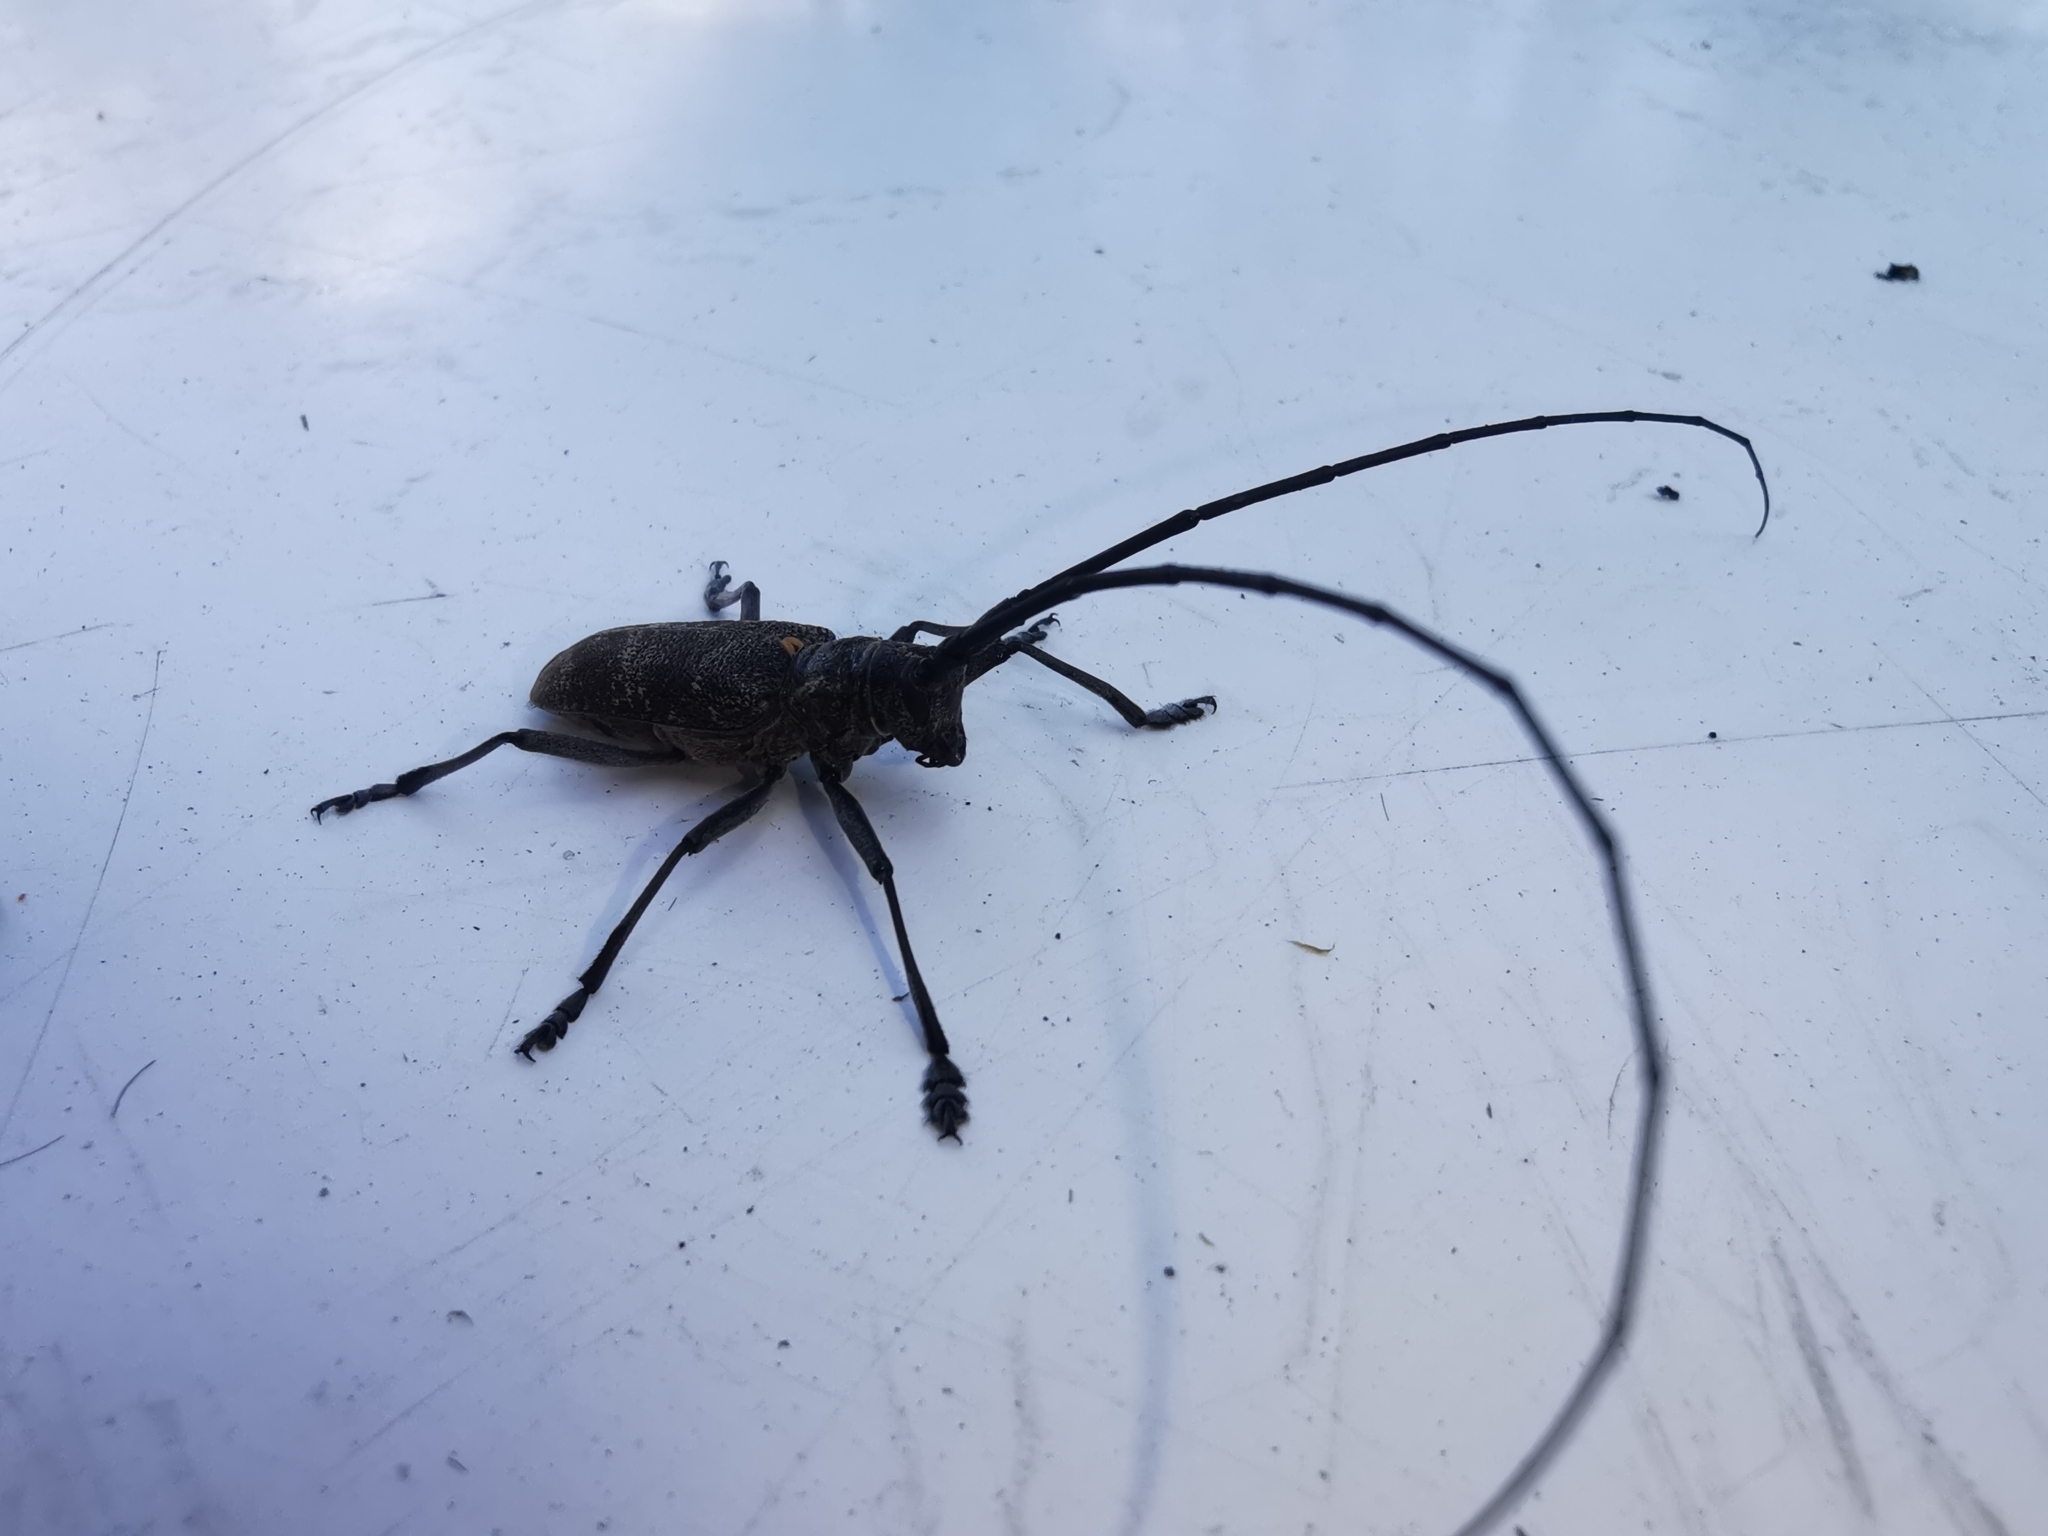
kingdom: Animalia
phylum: Arthropoda
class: Insecta
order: Coleoptera
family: Cerambycidae
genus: Monochamus
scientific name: Monochamus galloprovincialis
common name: Pine sawyer
